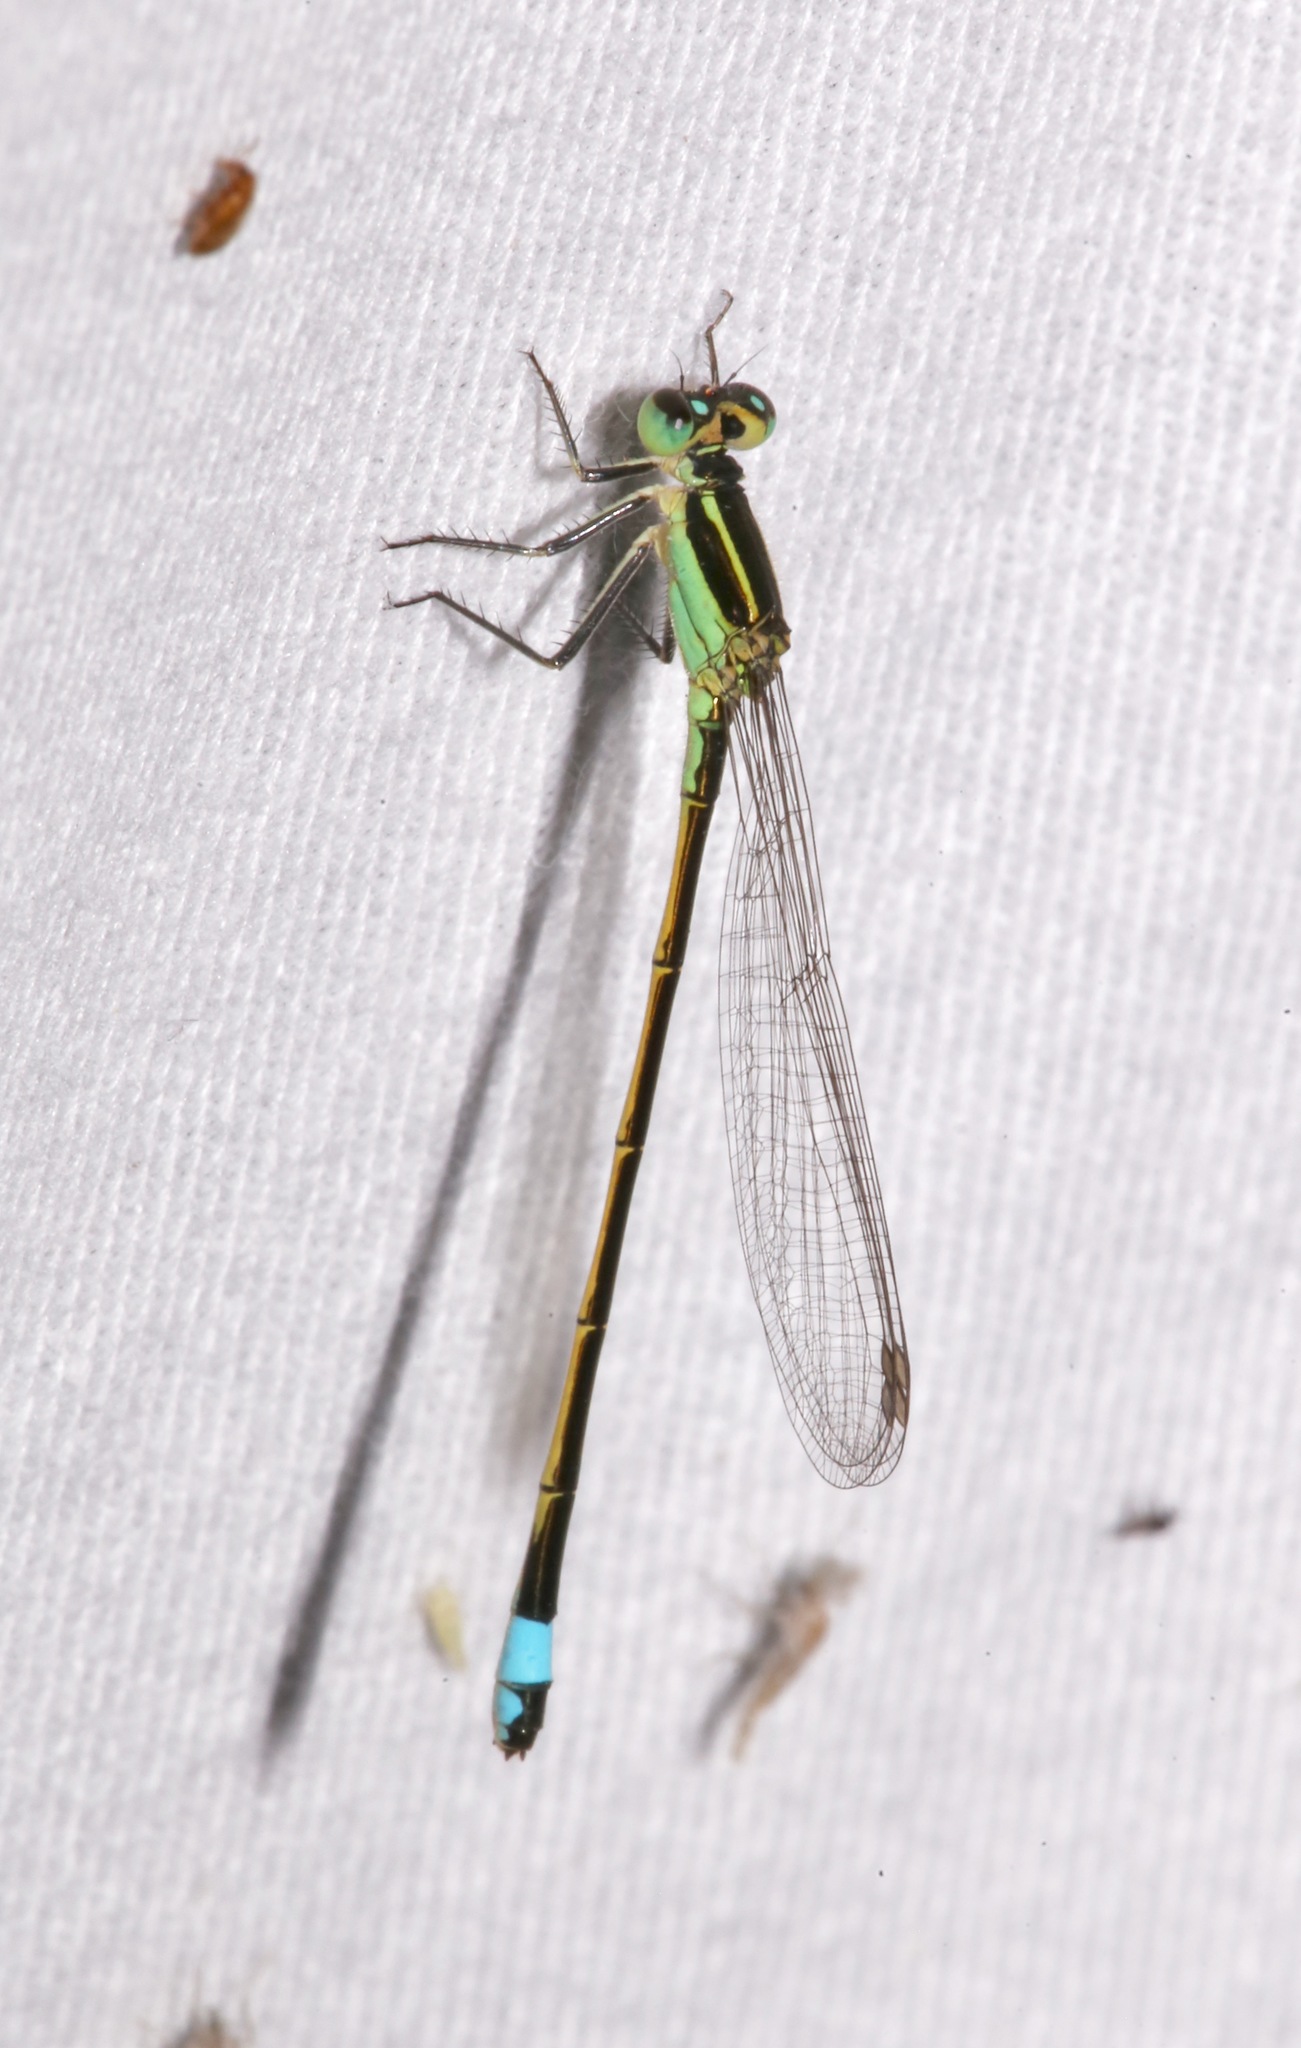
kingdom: Animalia
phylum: Arthropoda
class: Insecta
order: Odonata
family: Coenagrionidae
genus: Ischnura
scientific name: Ischnura ramburii
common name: Rambur's forktail
